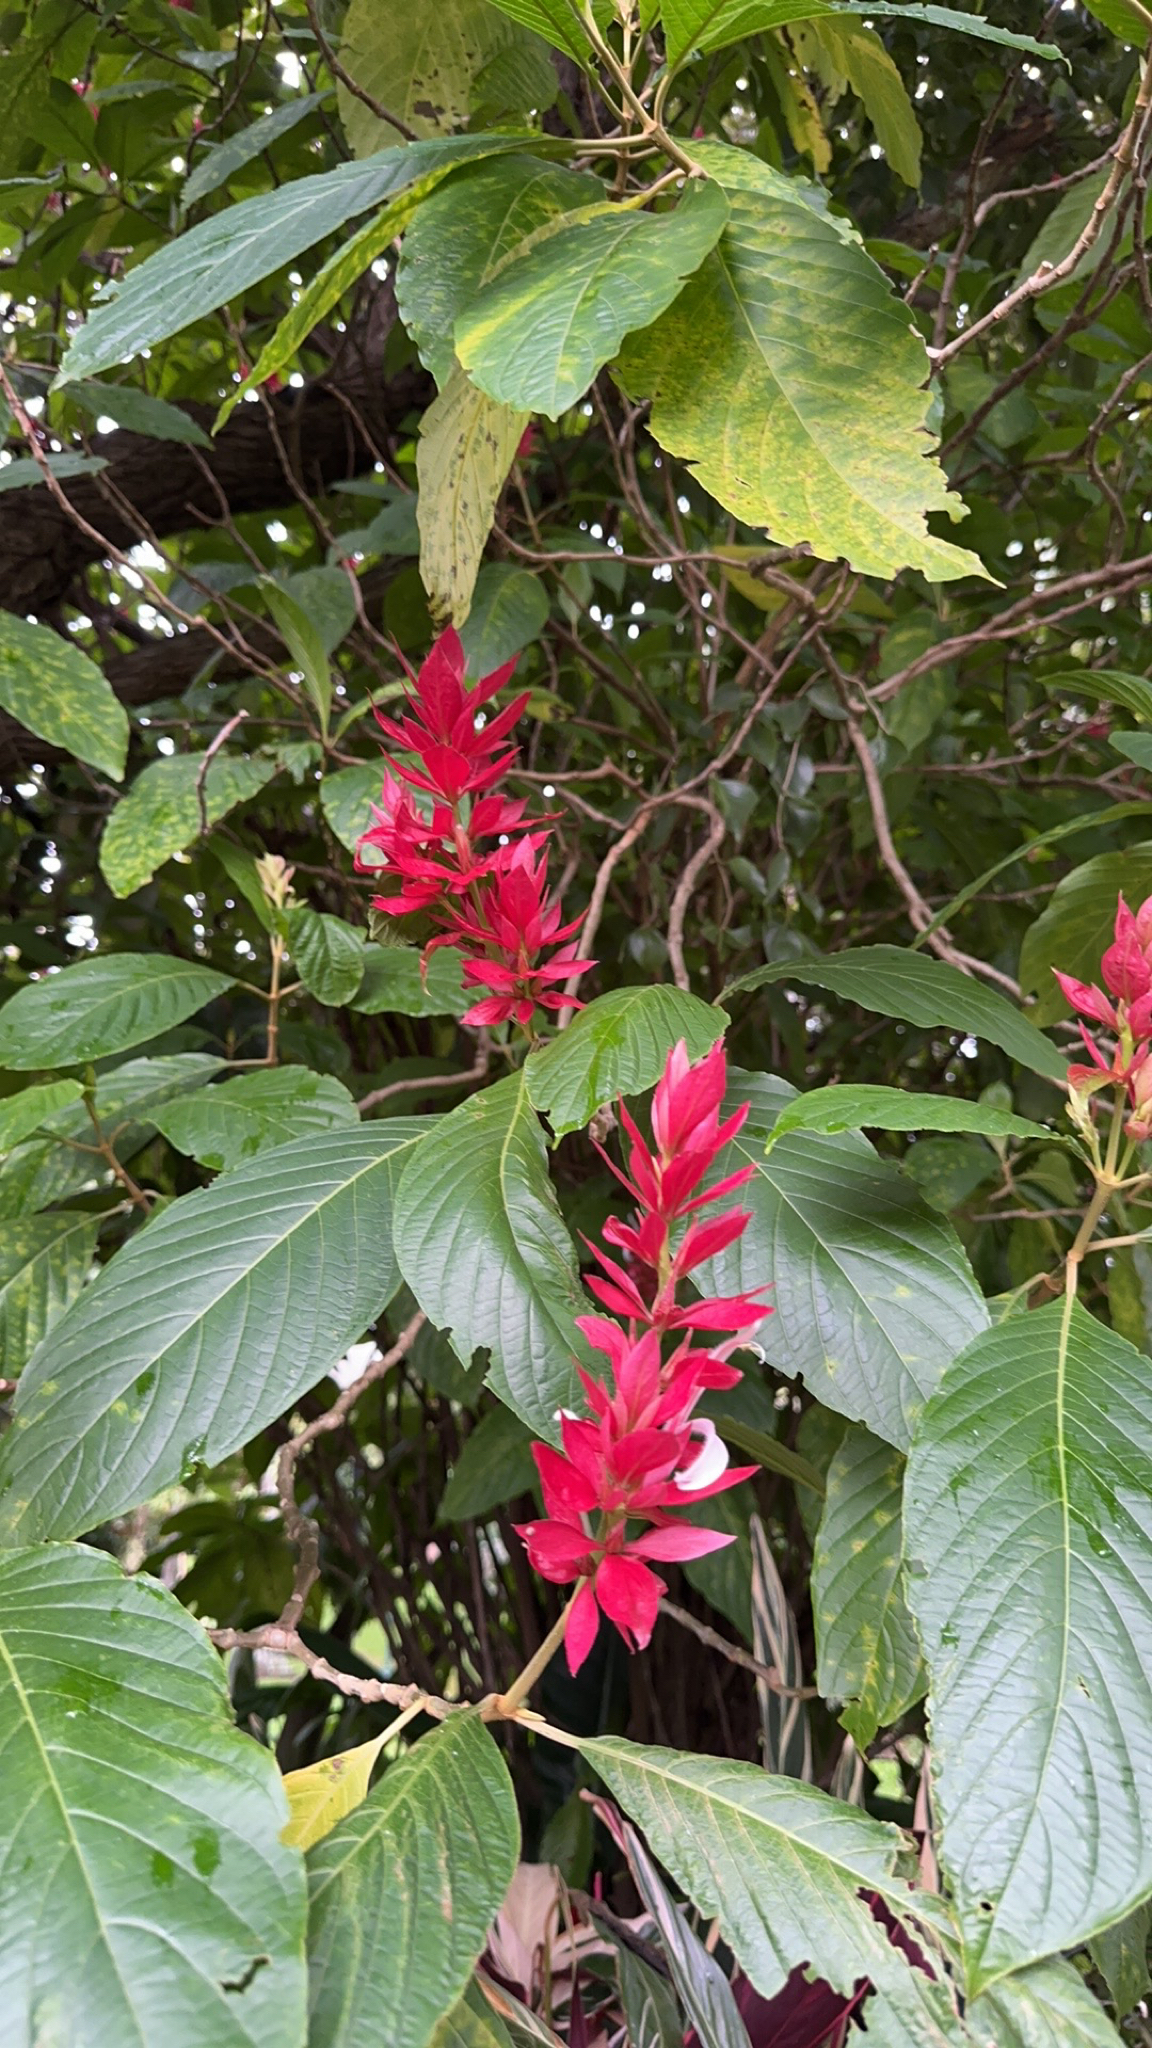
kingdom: Plantae
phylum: Tracheophyta
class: Magnoliopsida
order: Lamiales
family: Acanthaceae
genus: Megaskepasma
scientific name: Megaskepasma erythrochlamys
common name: Brazilian red-cloak
